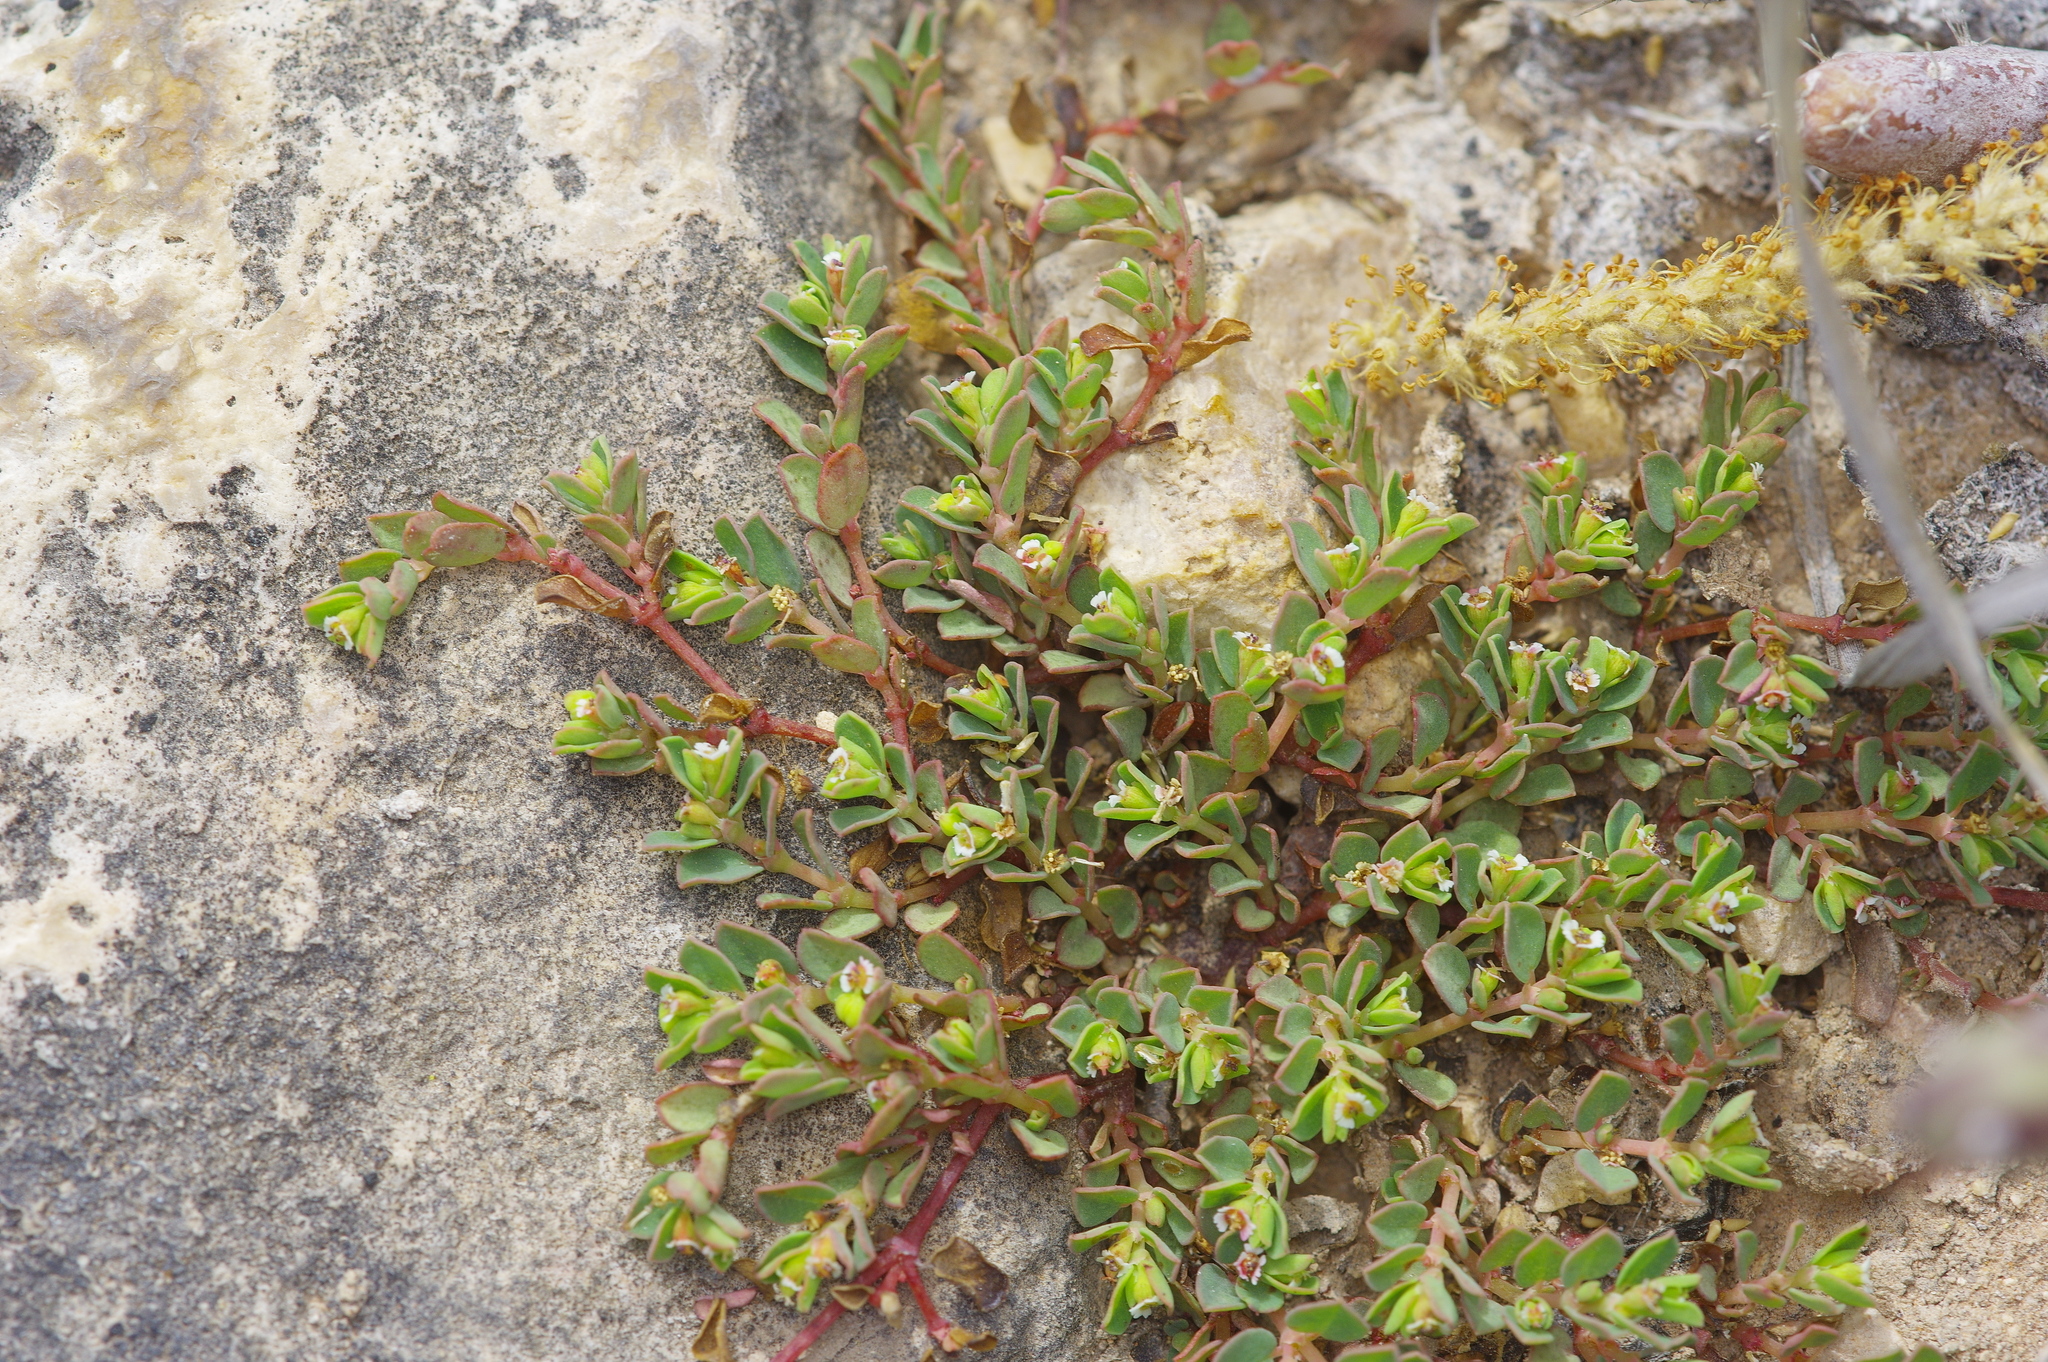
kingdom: Plantae
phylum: Tracheophyta
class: Magnoliopsida
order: Malpighiales
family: Euphorbiaceae
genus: Euphorbia
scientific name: Euphorbia serpens
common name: Matted sandmat
